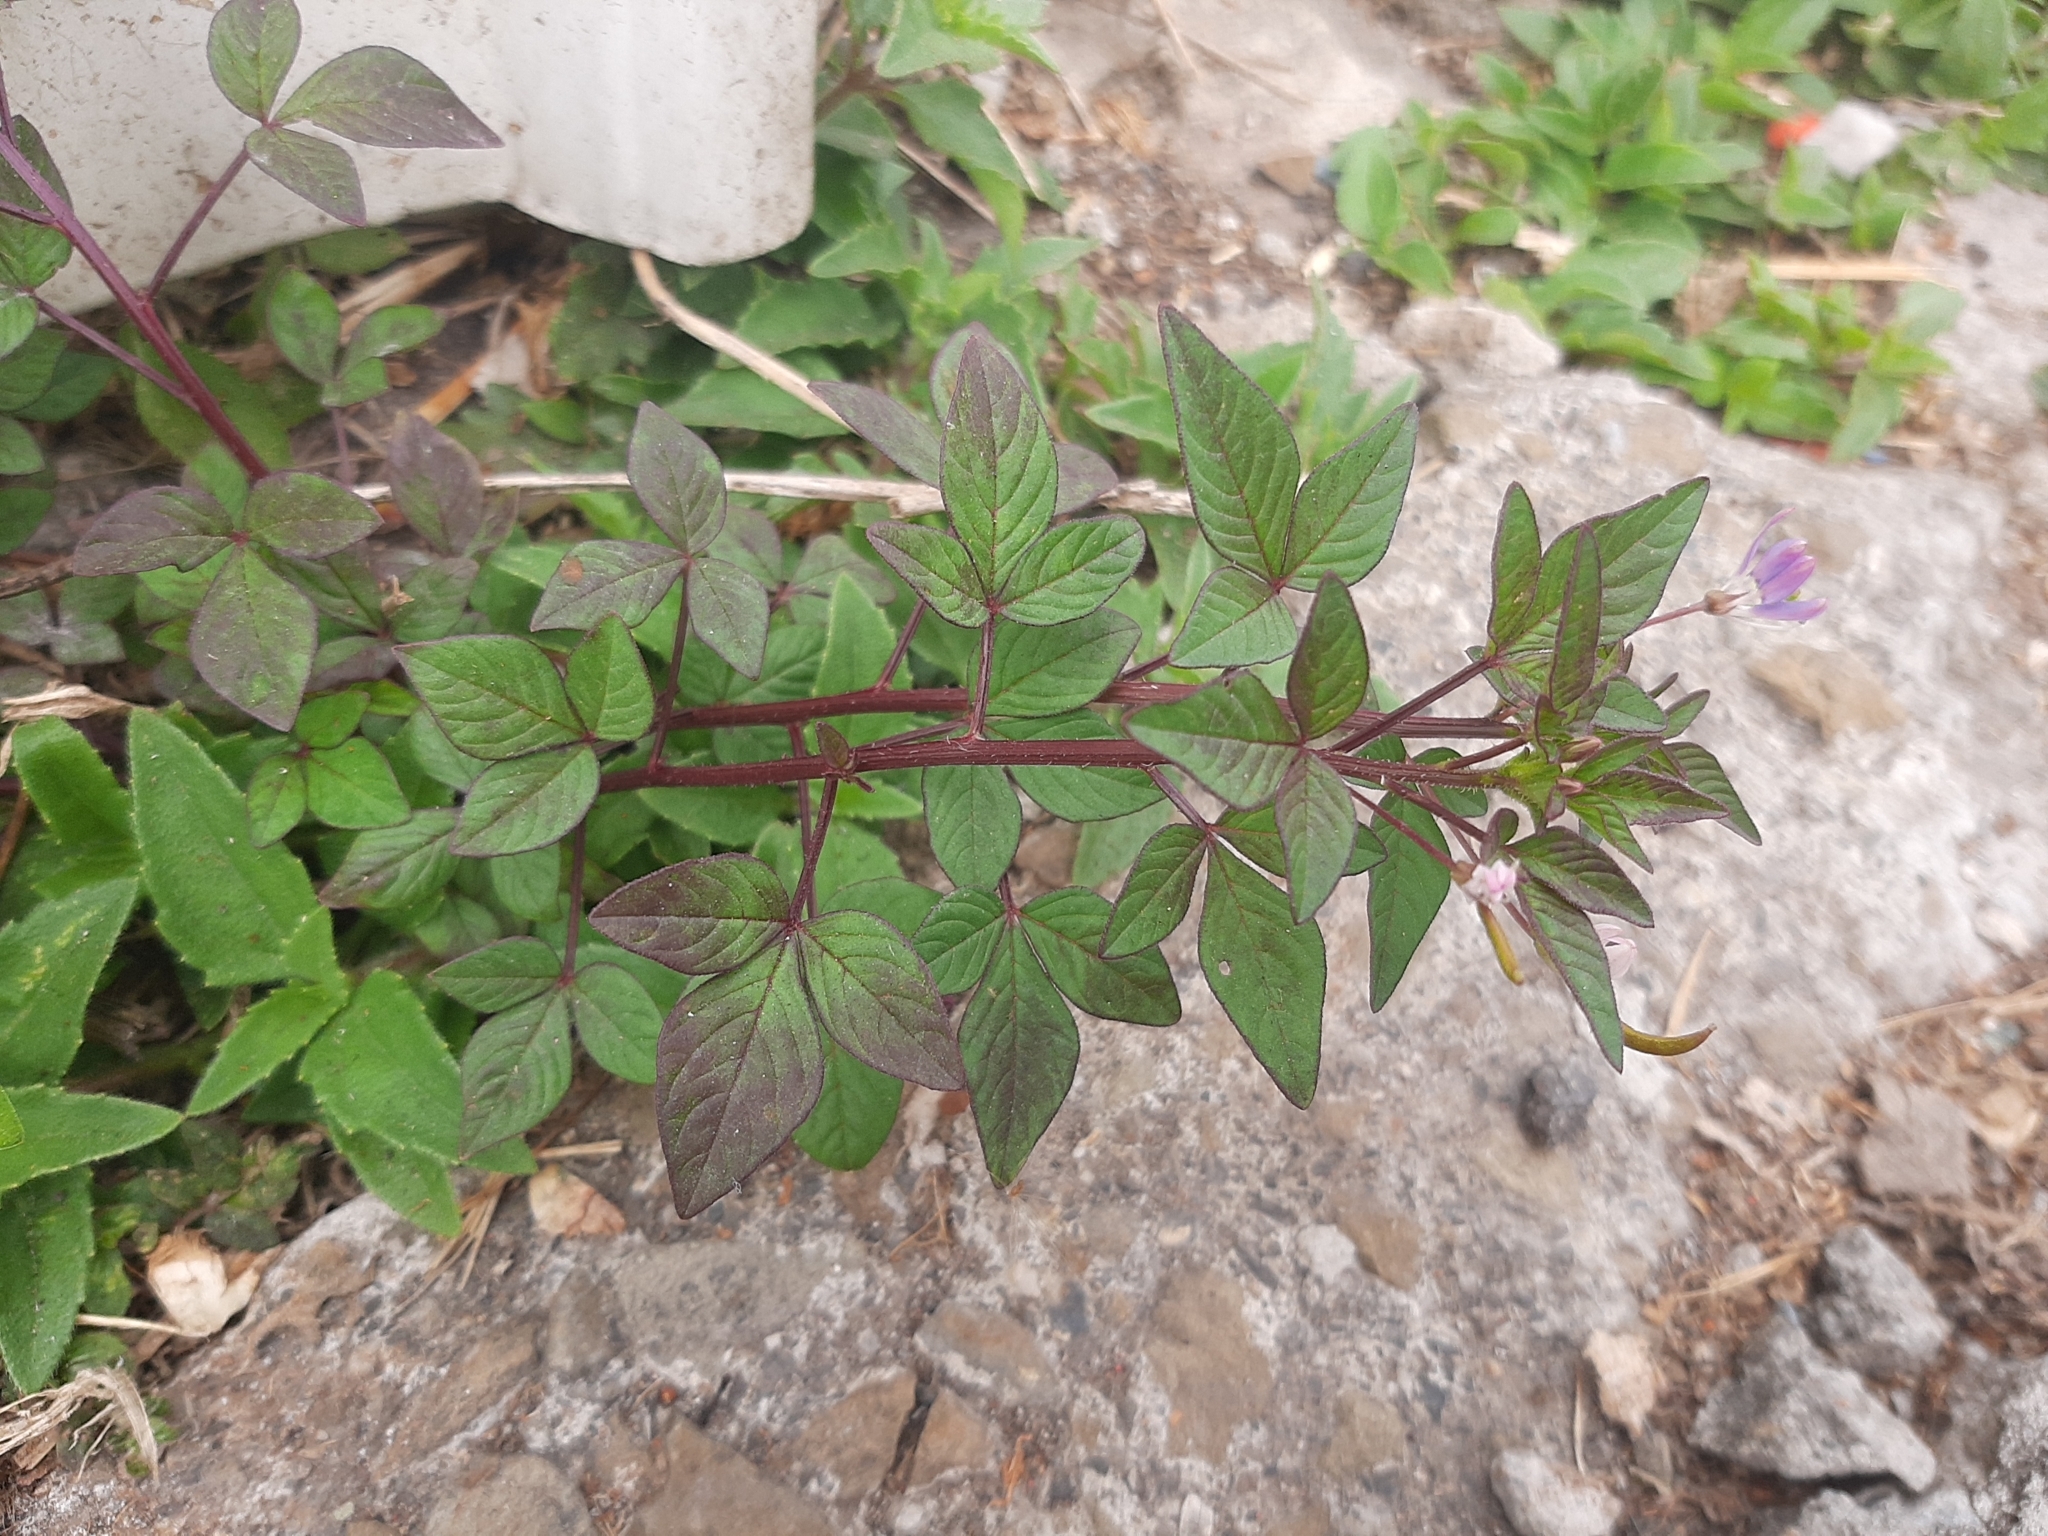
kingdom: Plantae
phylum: Tracheophyta
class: Magnoliopsida
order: Brassicales
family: Cleomaceae
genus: Sieruela
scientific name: Sieruela rutidosperma
